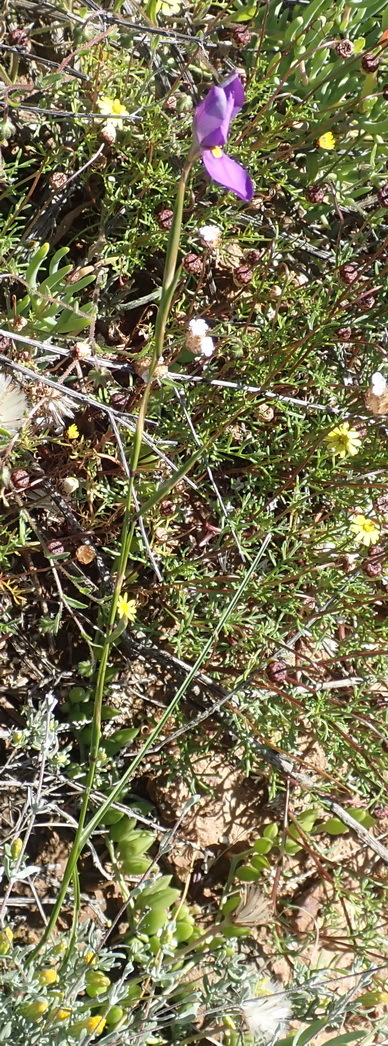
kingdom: Plantae
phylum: Tracheophyta
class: Liliopsida
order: Asparagales
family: Iridaceae
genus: Moraea
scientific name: Moraea bipartita
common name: Blue tulp
